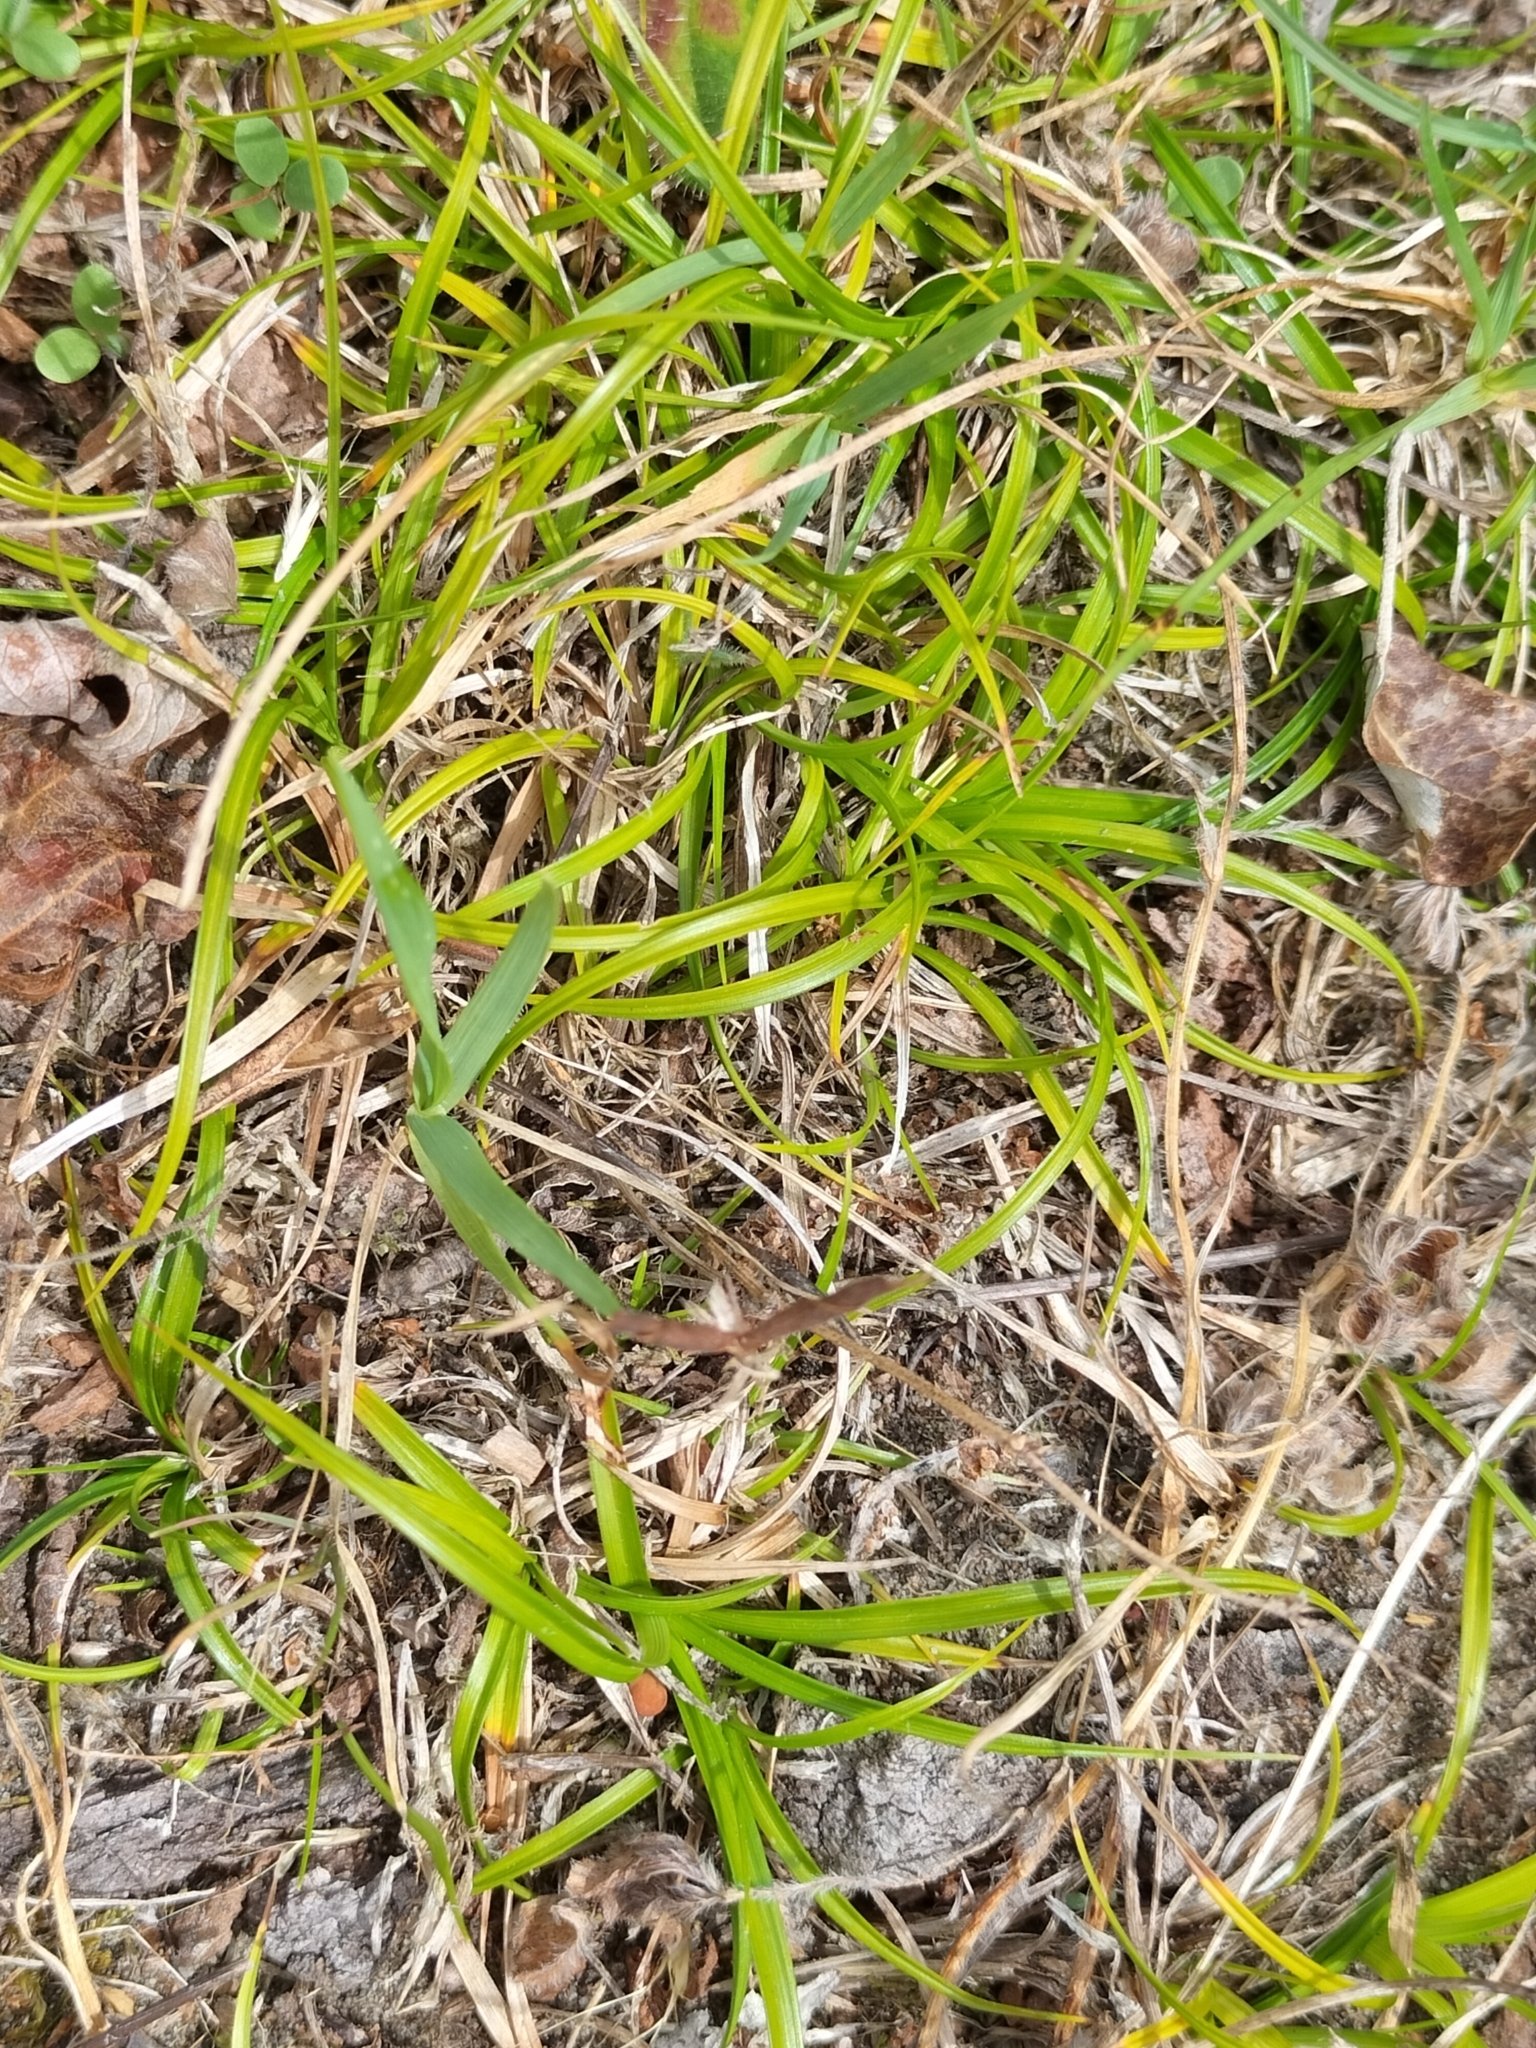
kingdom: Plantae
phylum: Tracheophyta
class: Liliopsida
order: Poales
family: Cyperaceae
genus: Carex
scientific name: Carex breviculmis
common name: Asian shortstem sedge
